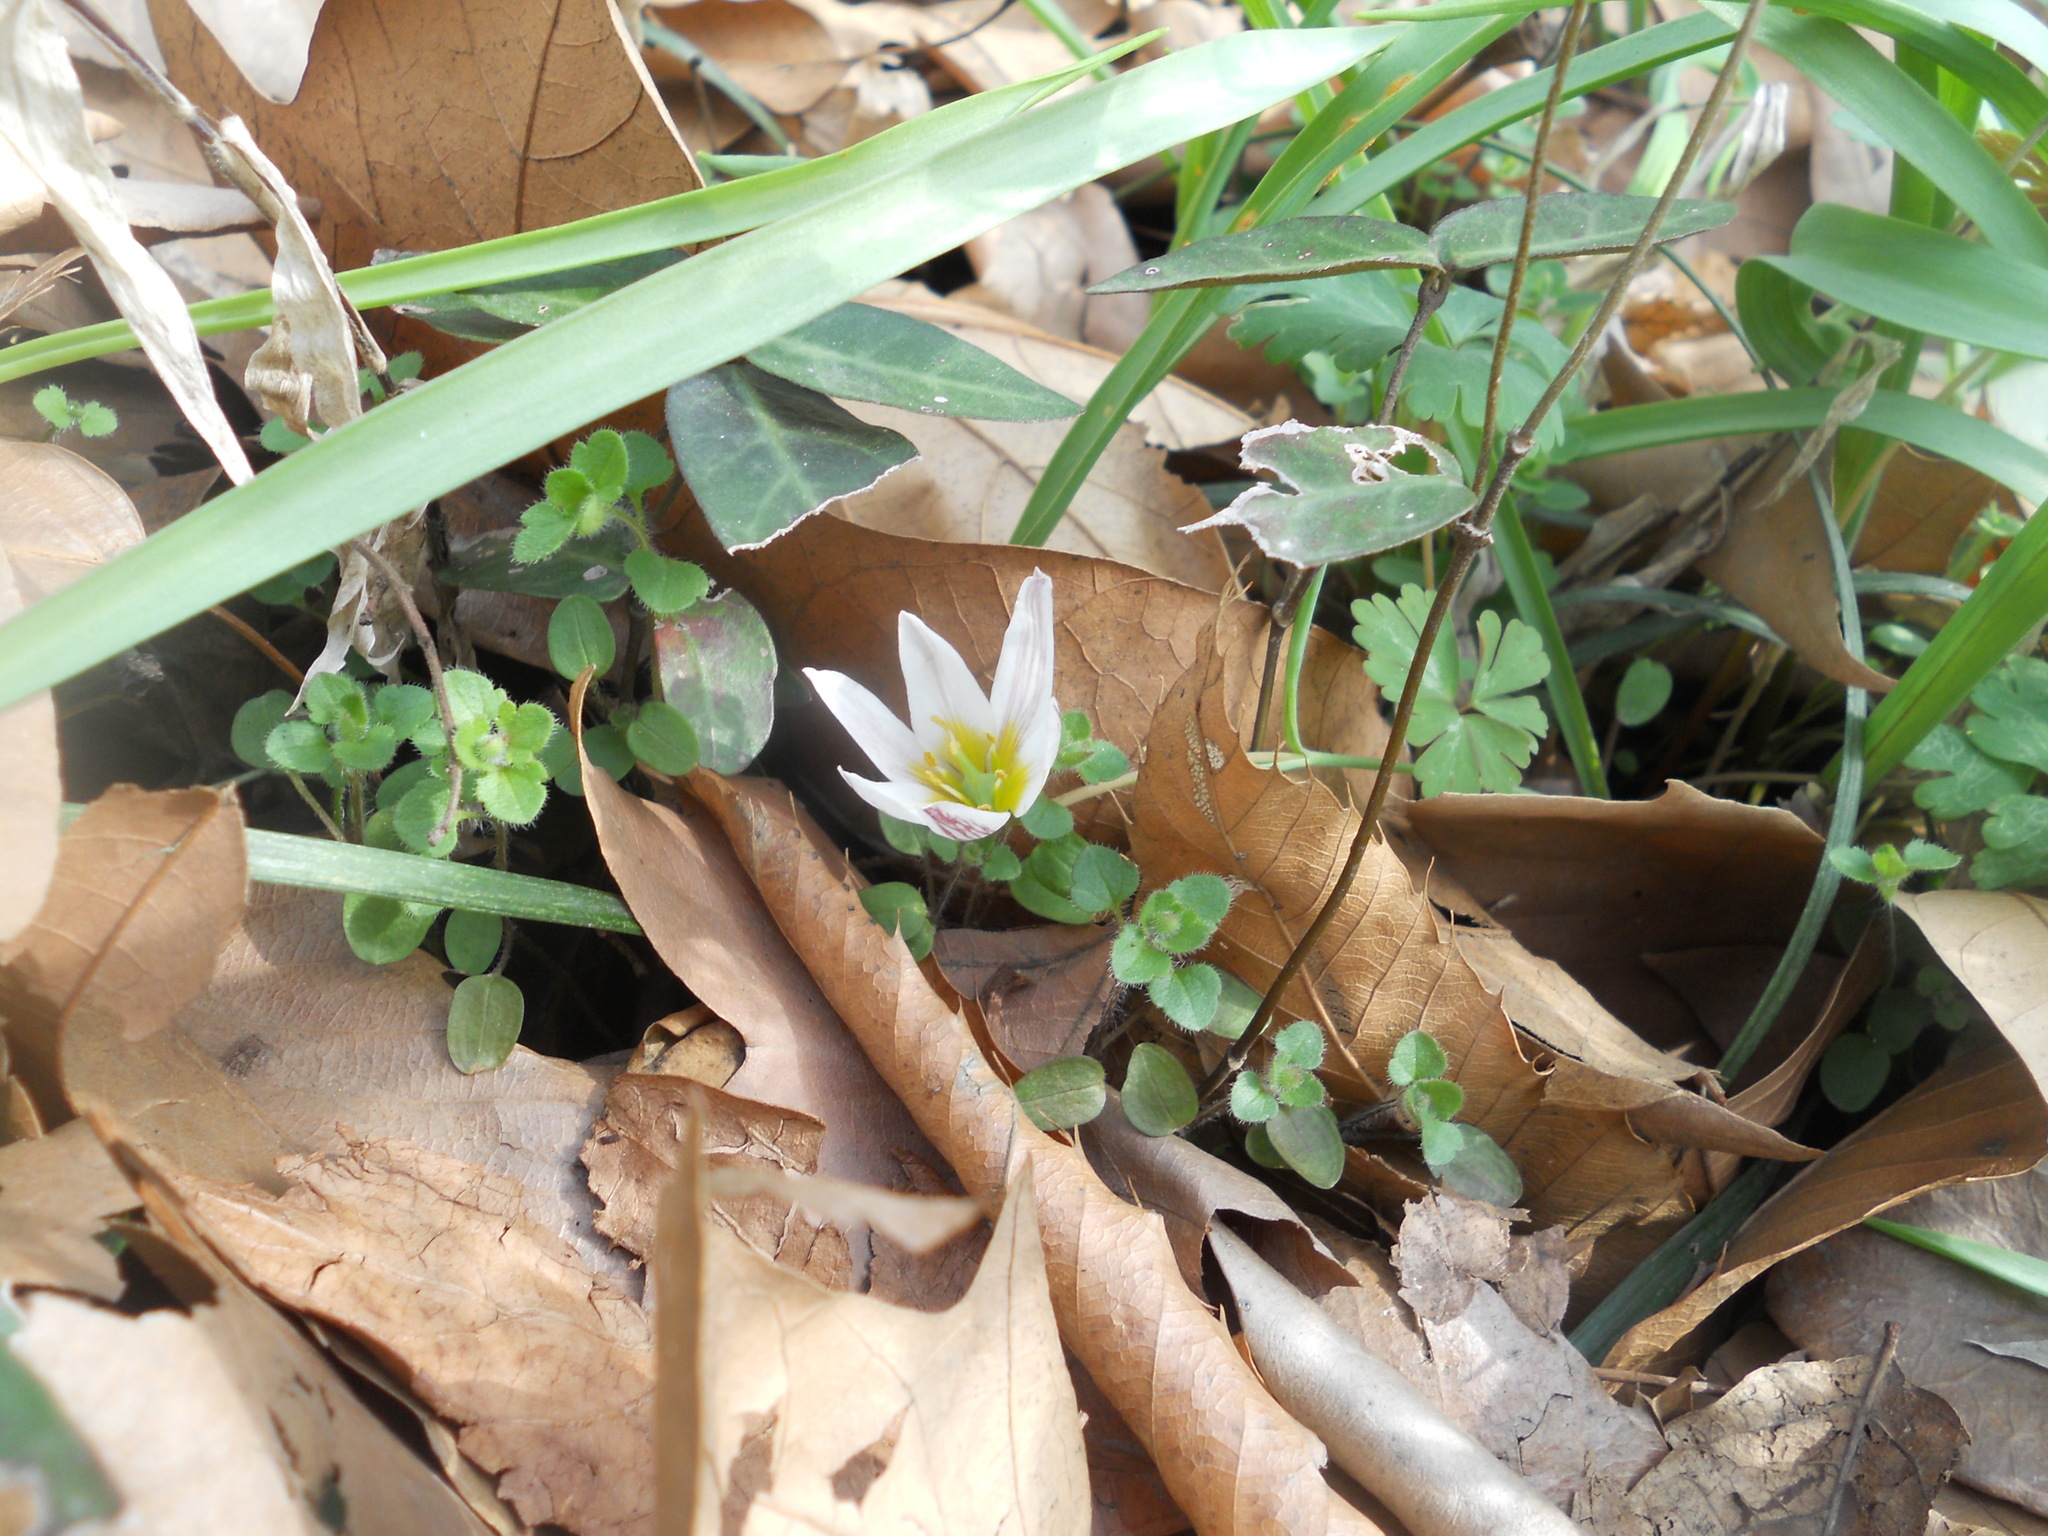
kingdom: Plantae
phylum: Tracheophyta
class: Liliopsida
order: Liliales
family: Liliaceae
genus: Amana
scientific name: Amana edulis
